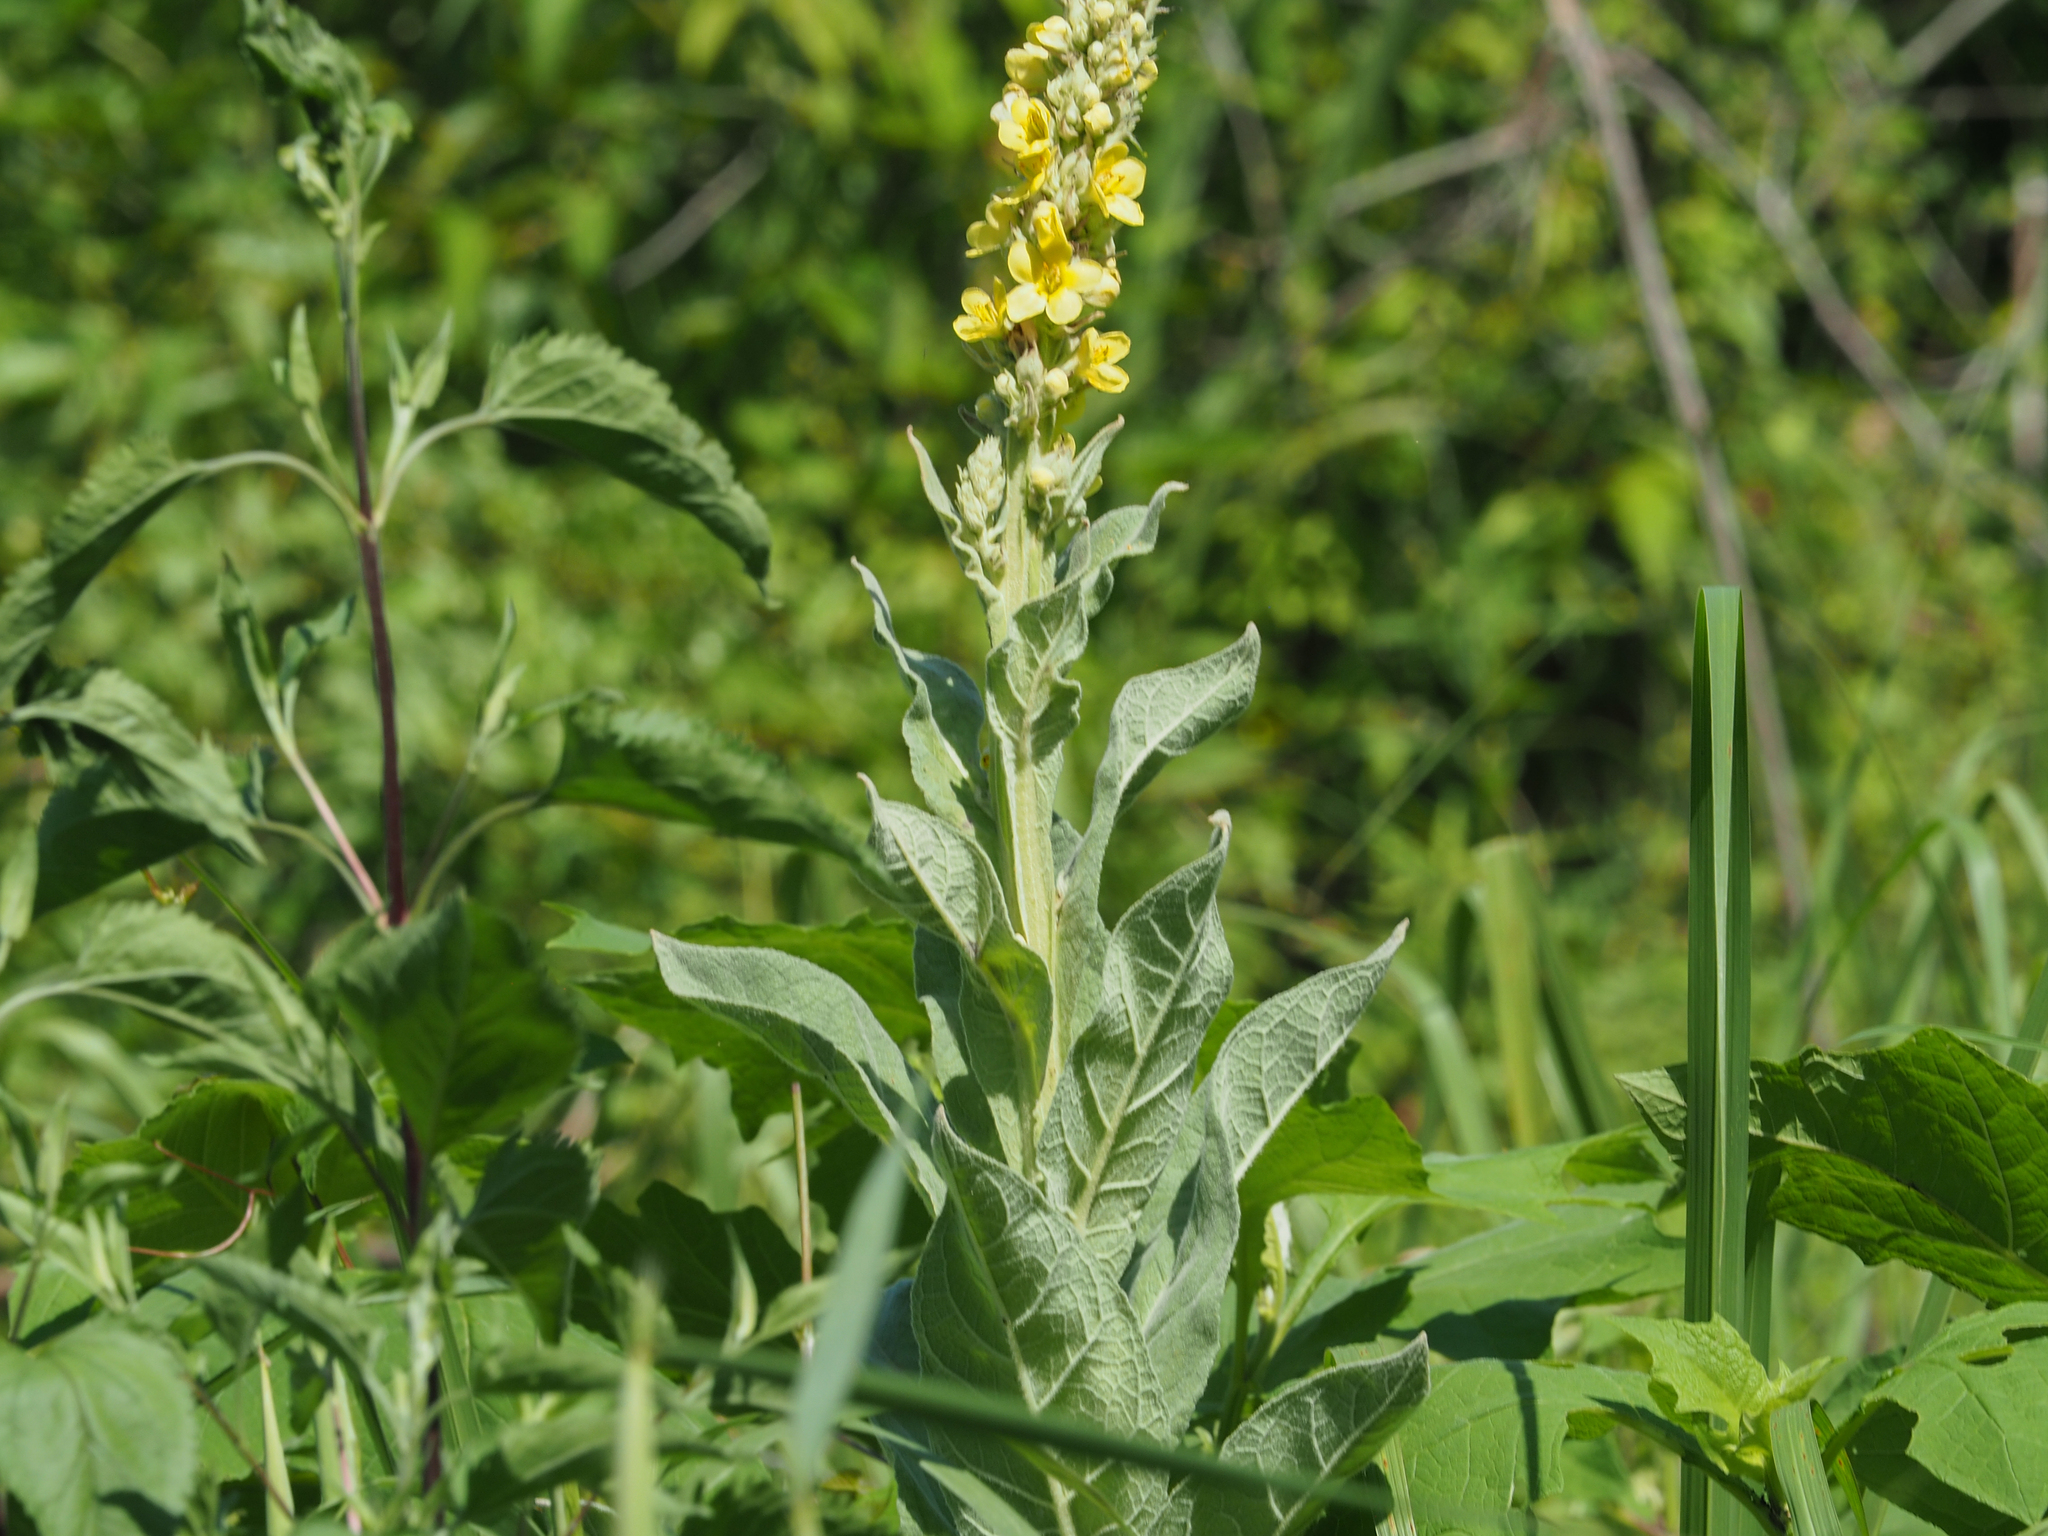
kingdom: Plantae
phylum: Tracheophyta
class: Magnoliopsida
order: Lamiales
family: Scrophulariaceae
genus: Verbascum
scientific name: Verbascum thapsus
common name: Common mullein
